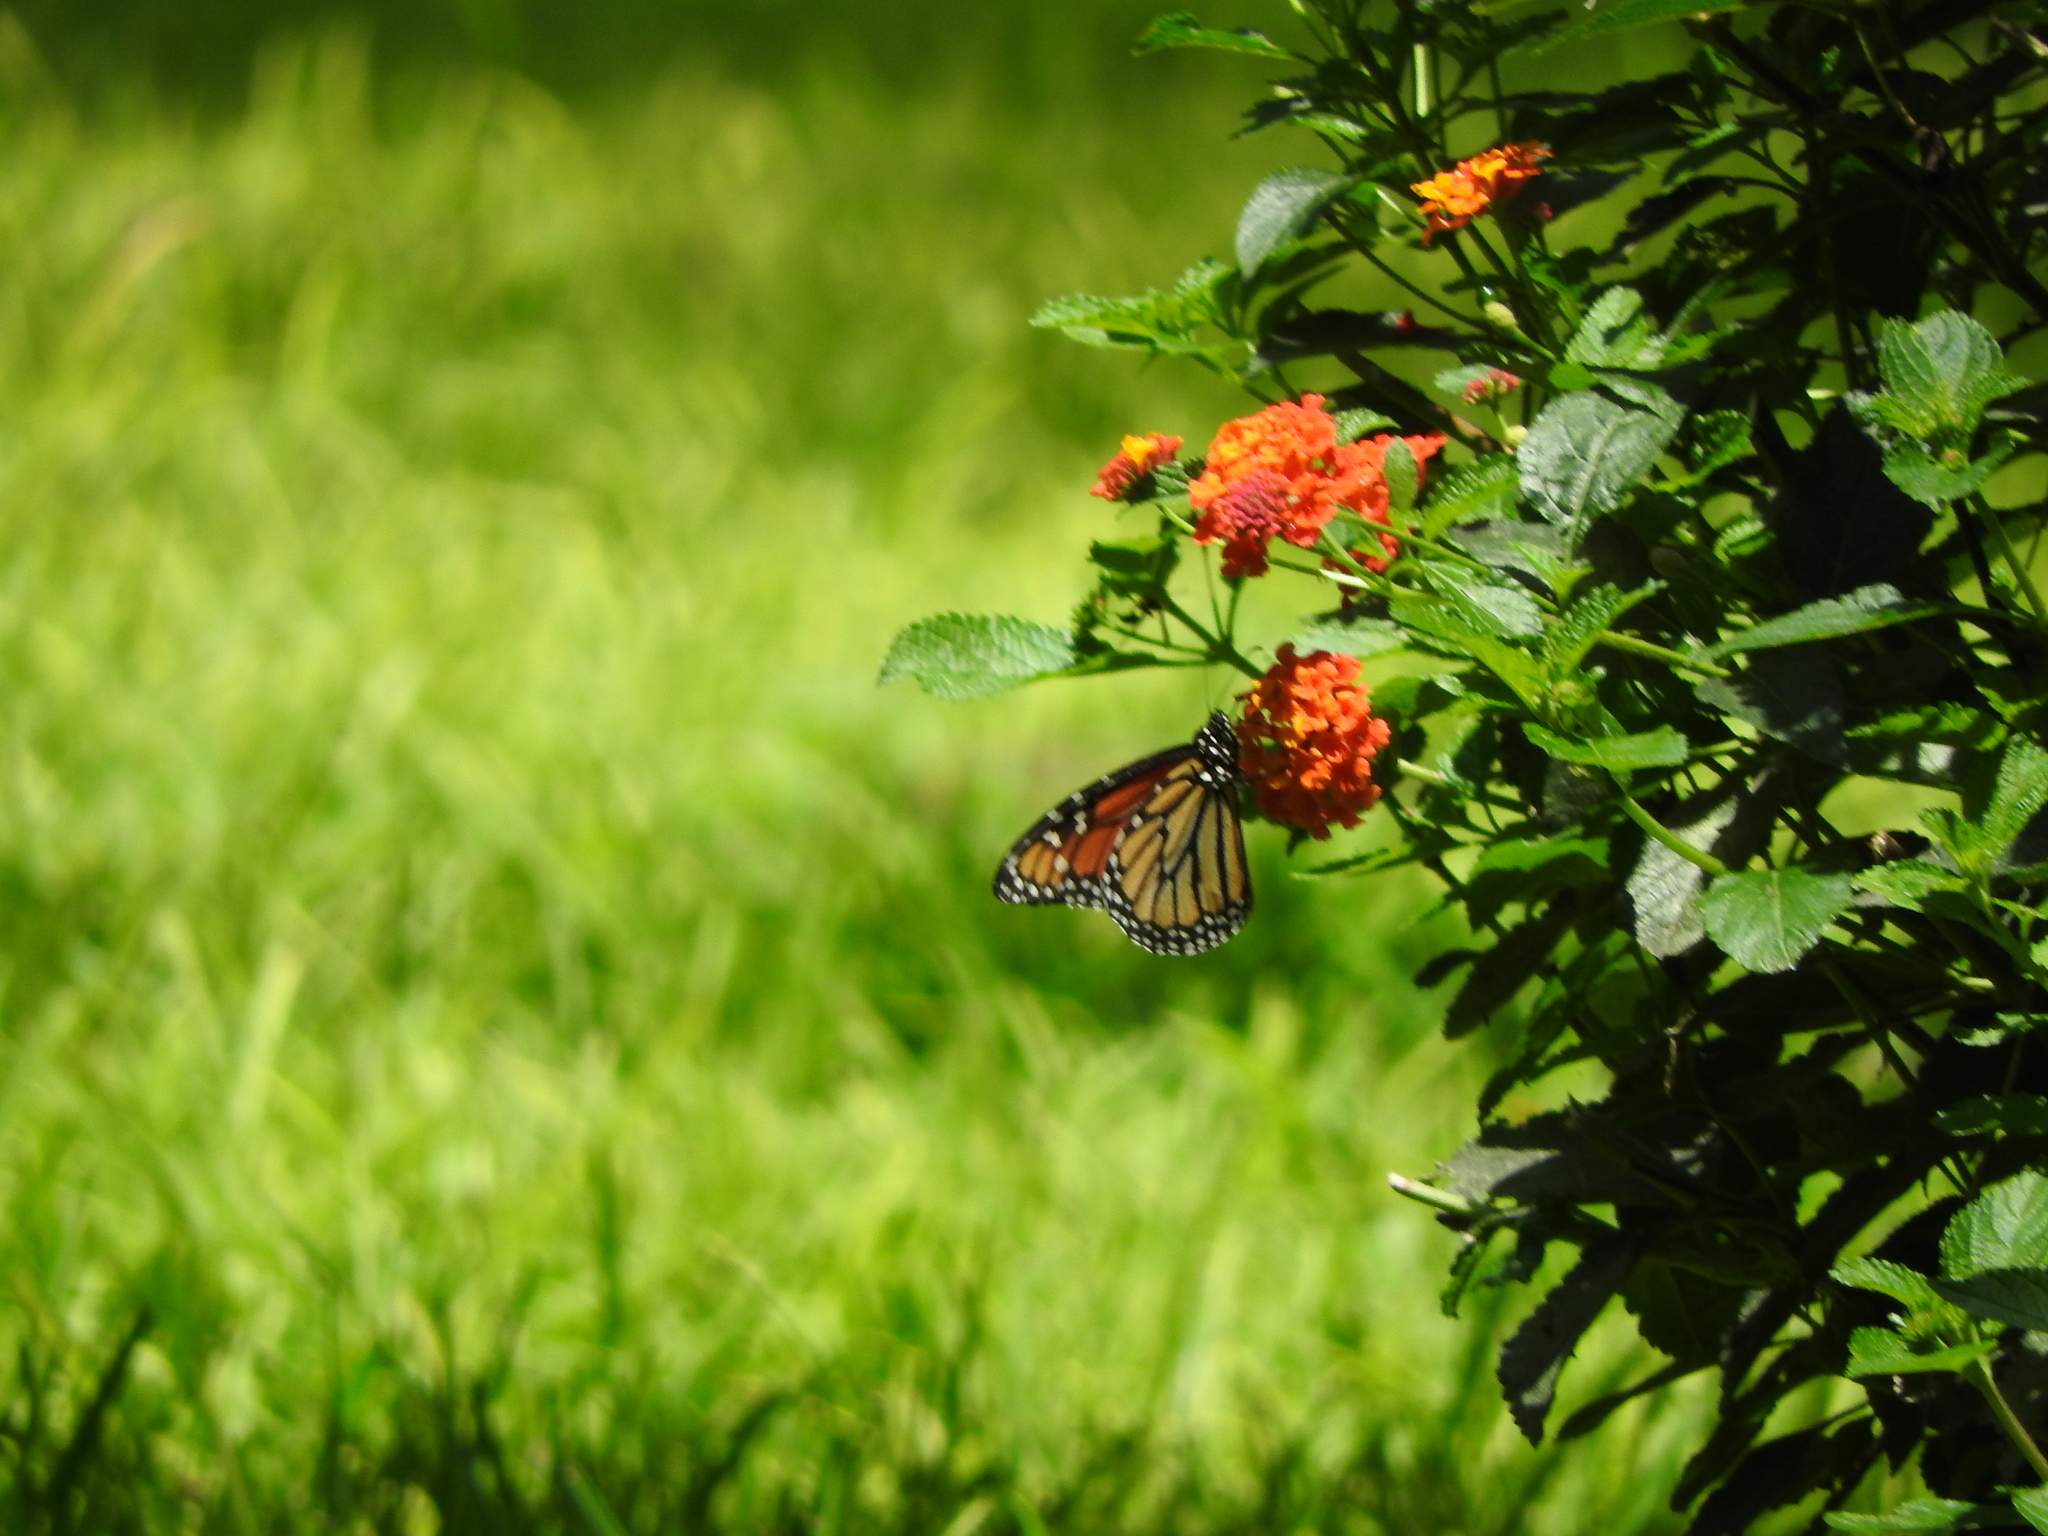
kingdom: Animalia
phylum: Arthropoda
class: Insecta
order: Lepidoptera
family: Nymphalidae
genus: Danaus
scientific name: Danaus plexippus
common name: Monarch
